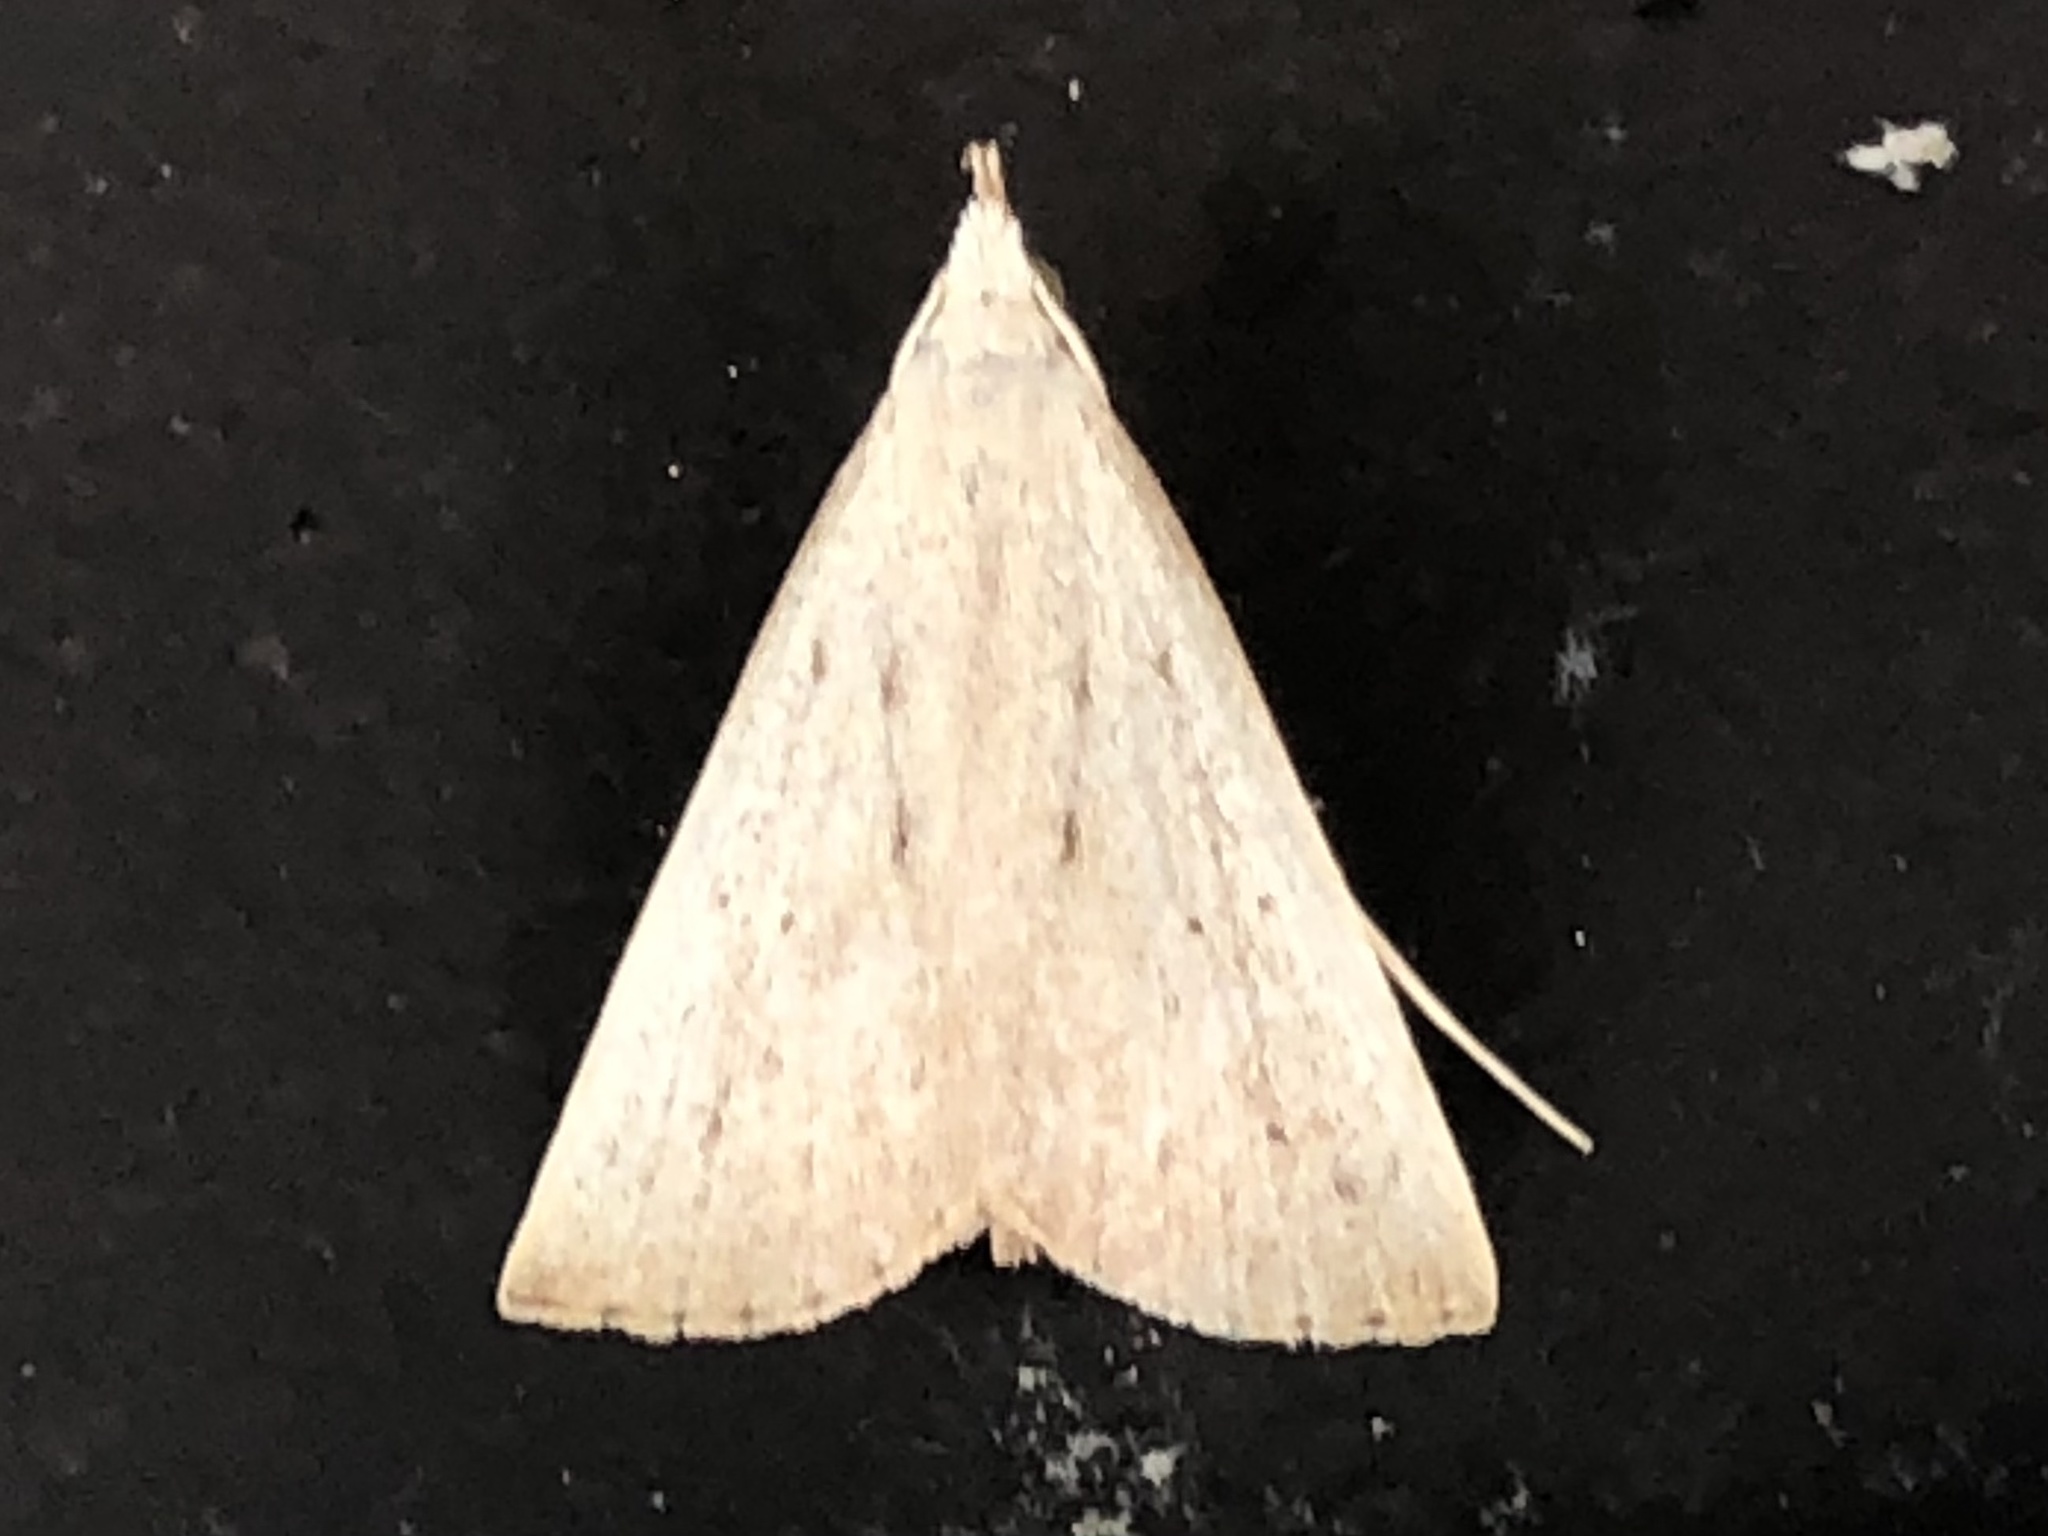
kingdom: Animalia
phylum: Arthropoda
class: Insecta
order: Lepidoptera
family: Erebidae
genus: Macrochilo
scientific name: Macrochilo louisiana
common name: Louisiana macrochilo
